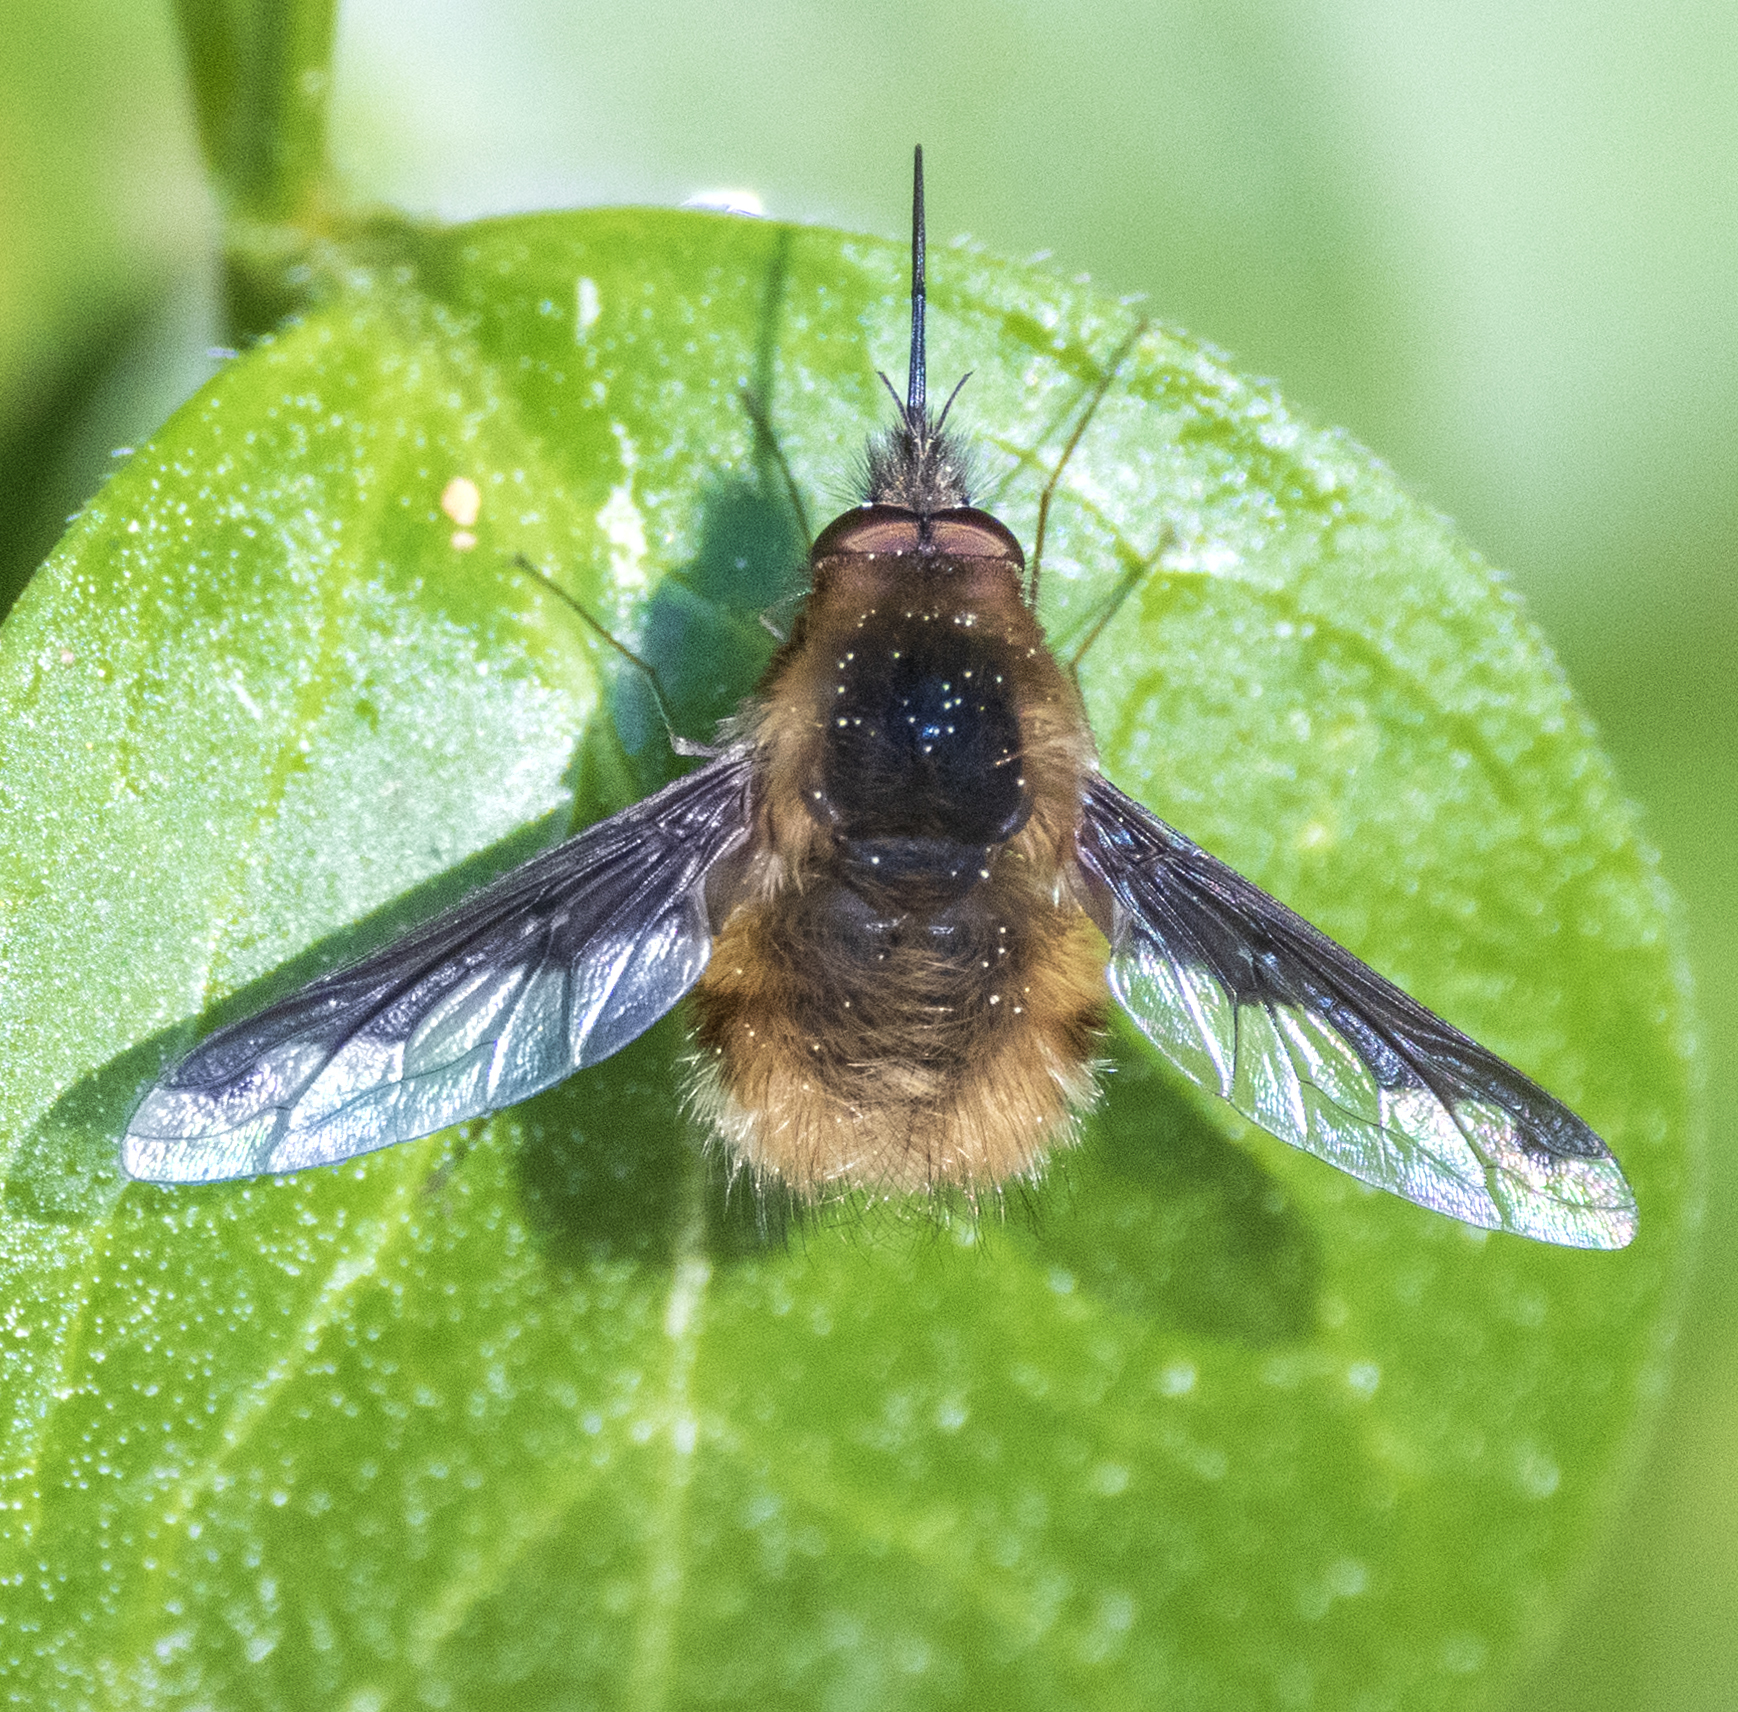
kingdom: Animalia
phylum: Arthropoda
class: Insecta
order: Diptera
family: Bombyliidae
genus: Bombylius
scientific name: Bombylius major
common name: Bee fly
